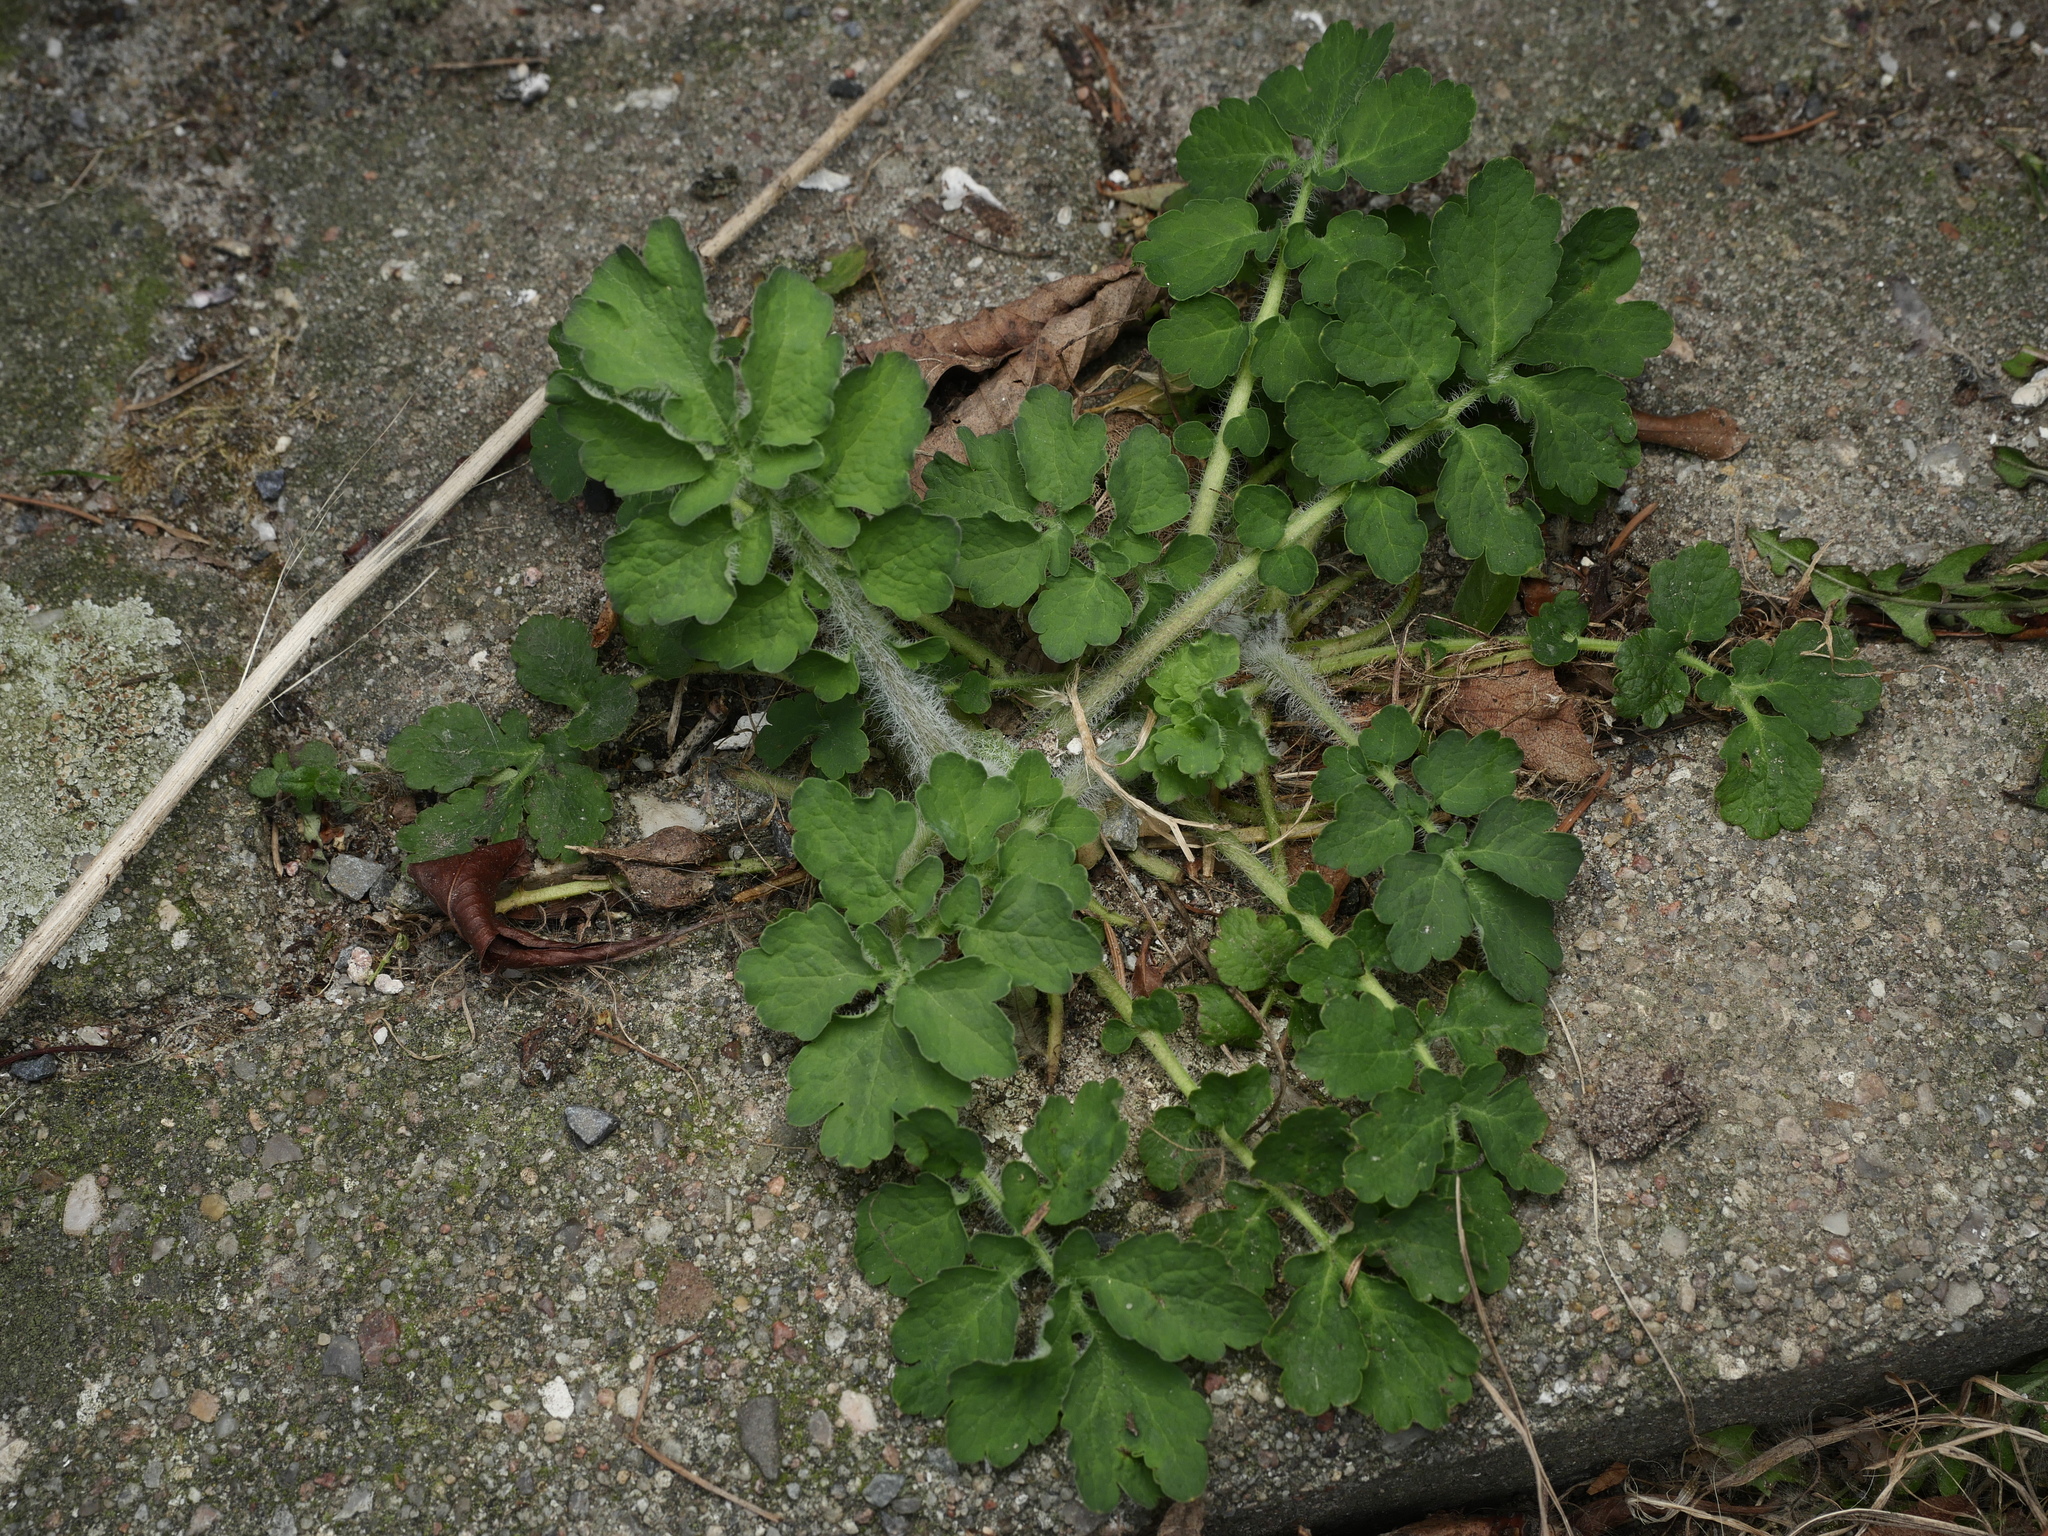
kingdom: Plantae
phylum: Tracheophyta
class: Magnoliopsida
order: Ranunculales
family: Papaveraceae
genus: Chelidonium
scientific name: Chelidonium majus
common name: Greater celandine
